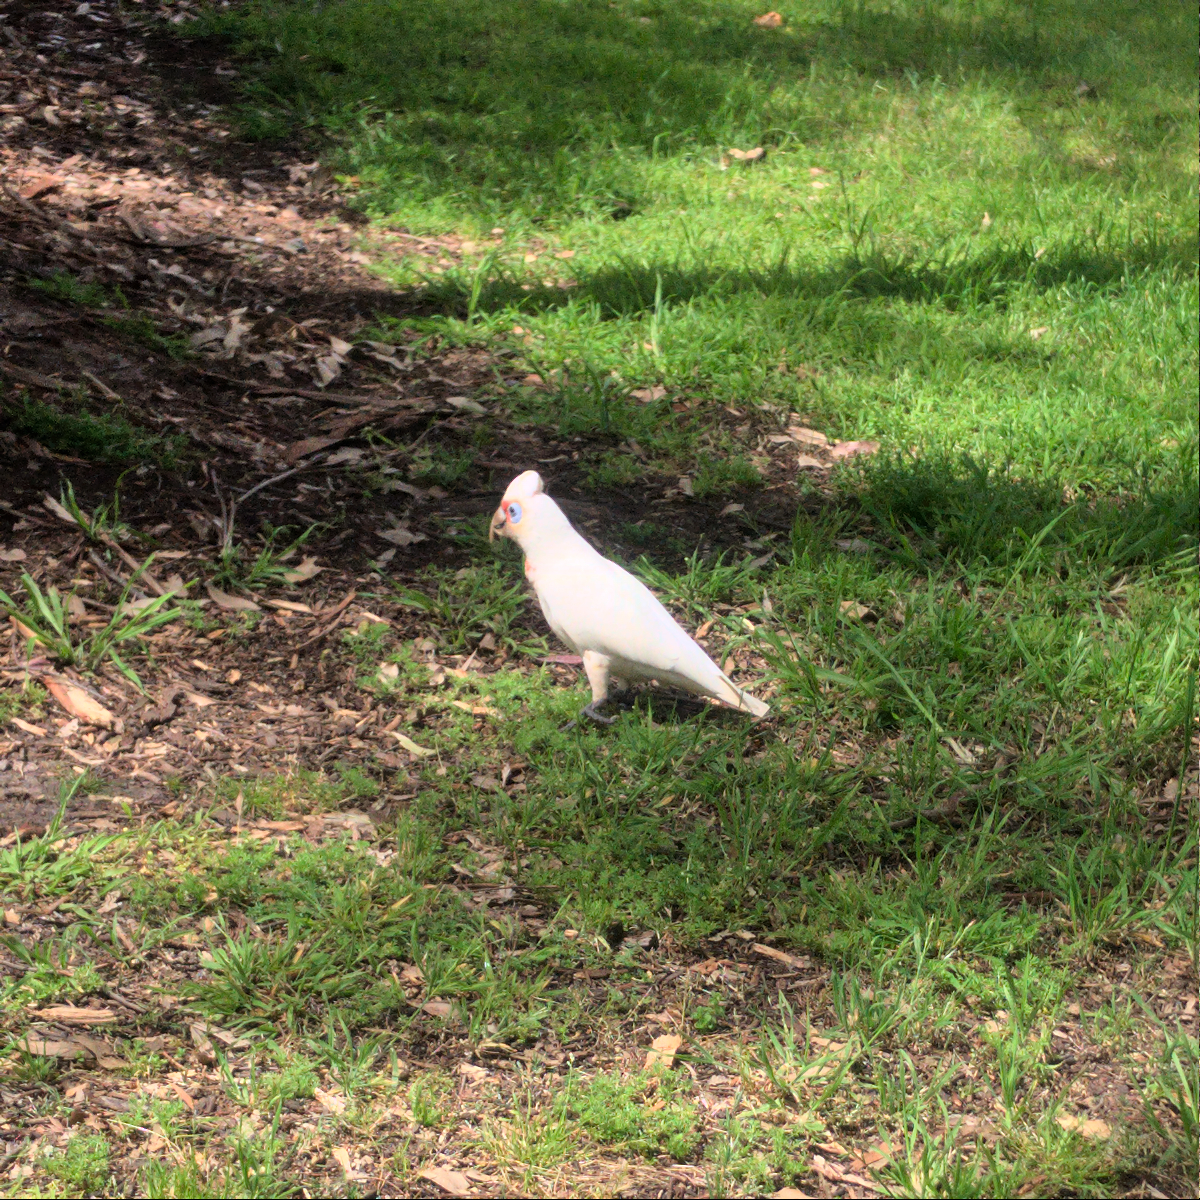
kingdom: Animalia
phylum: Chordata
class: Aves
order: Psittaciformes
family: Psittacidae
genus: Cacatua
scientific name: Cacatua tenuirostris
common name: Long-billed corella
